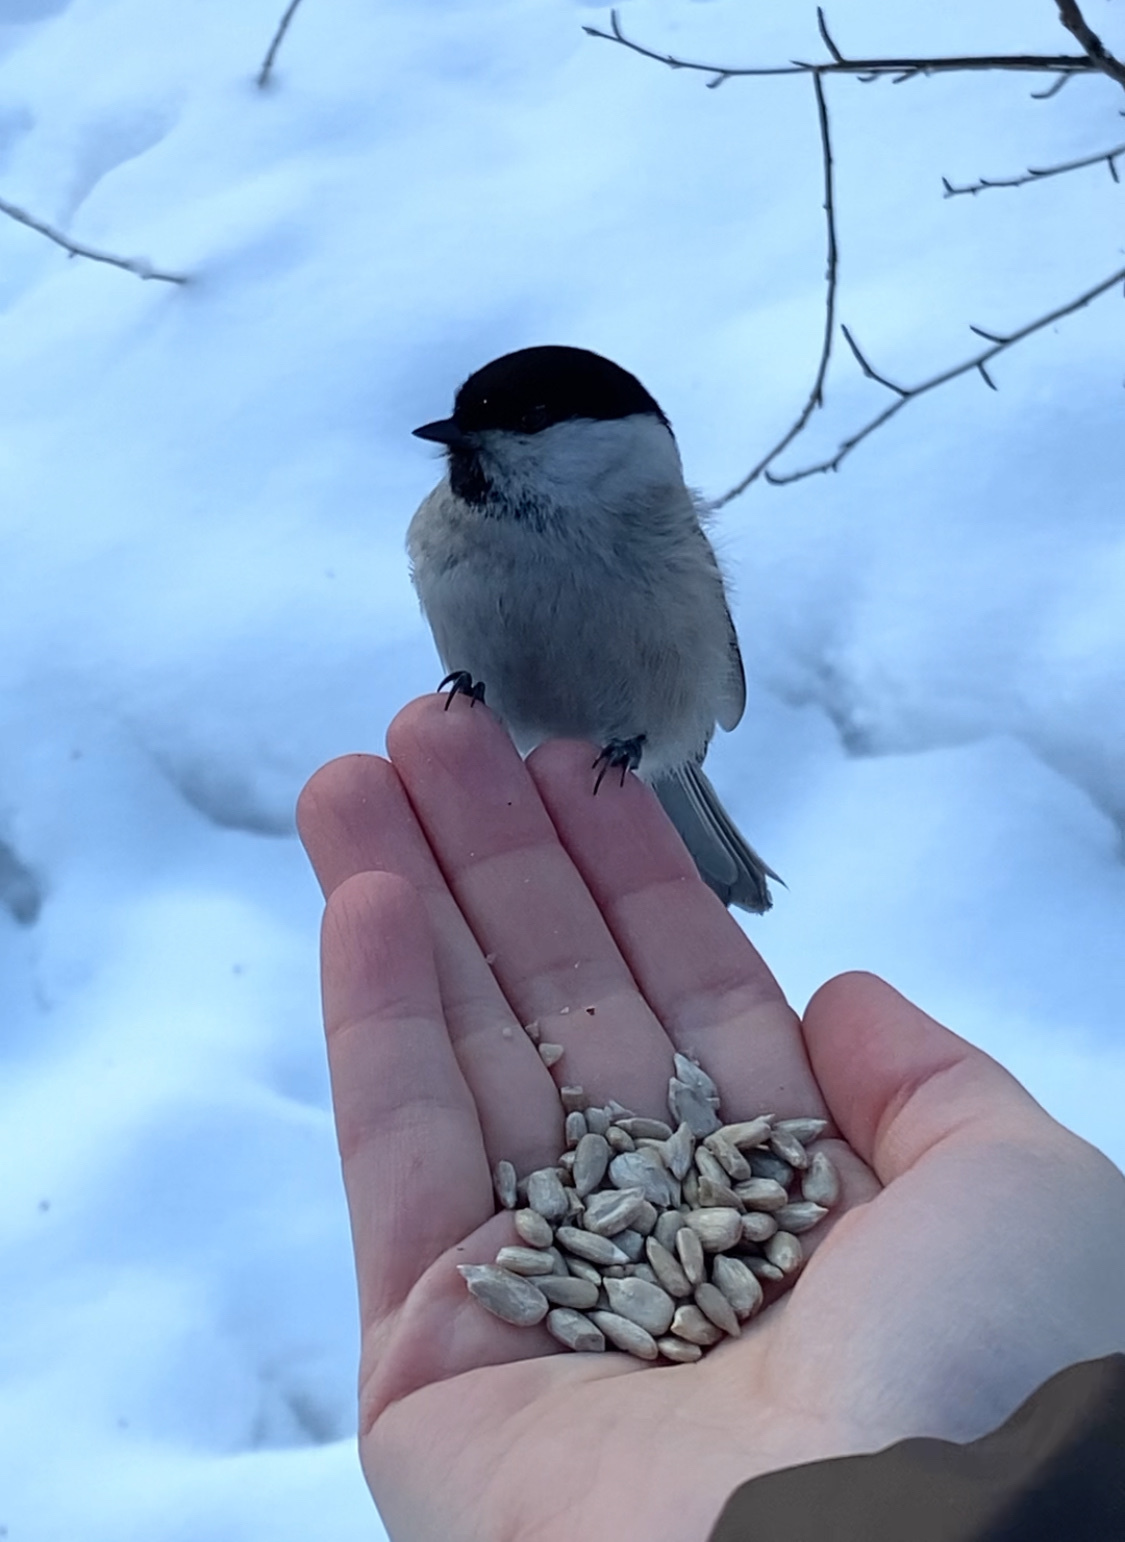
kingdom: Animalia
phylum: Chordata
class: Aves
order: Passeriformes
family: Paridae
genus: Poecile
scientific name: Poecile montanus
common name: Willow tit
